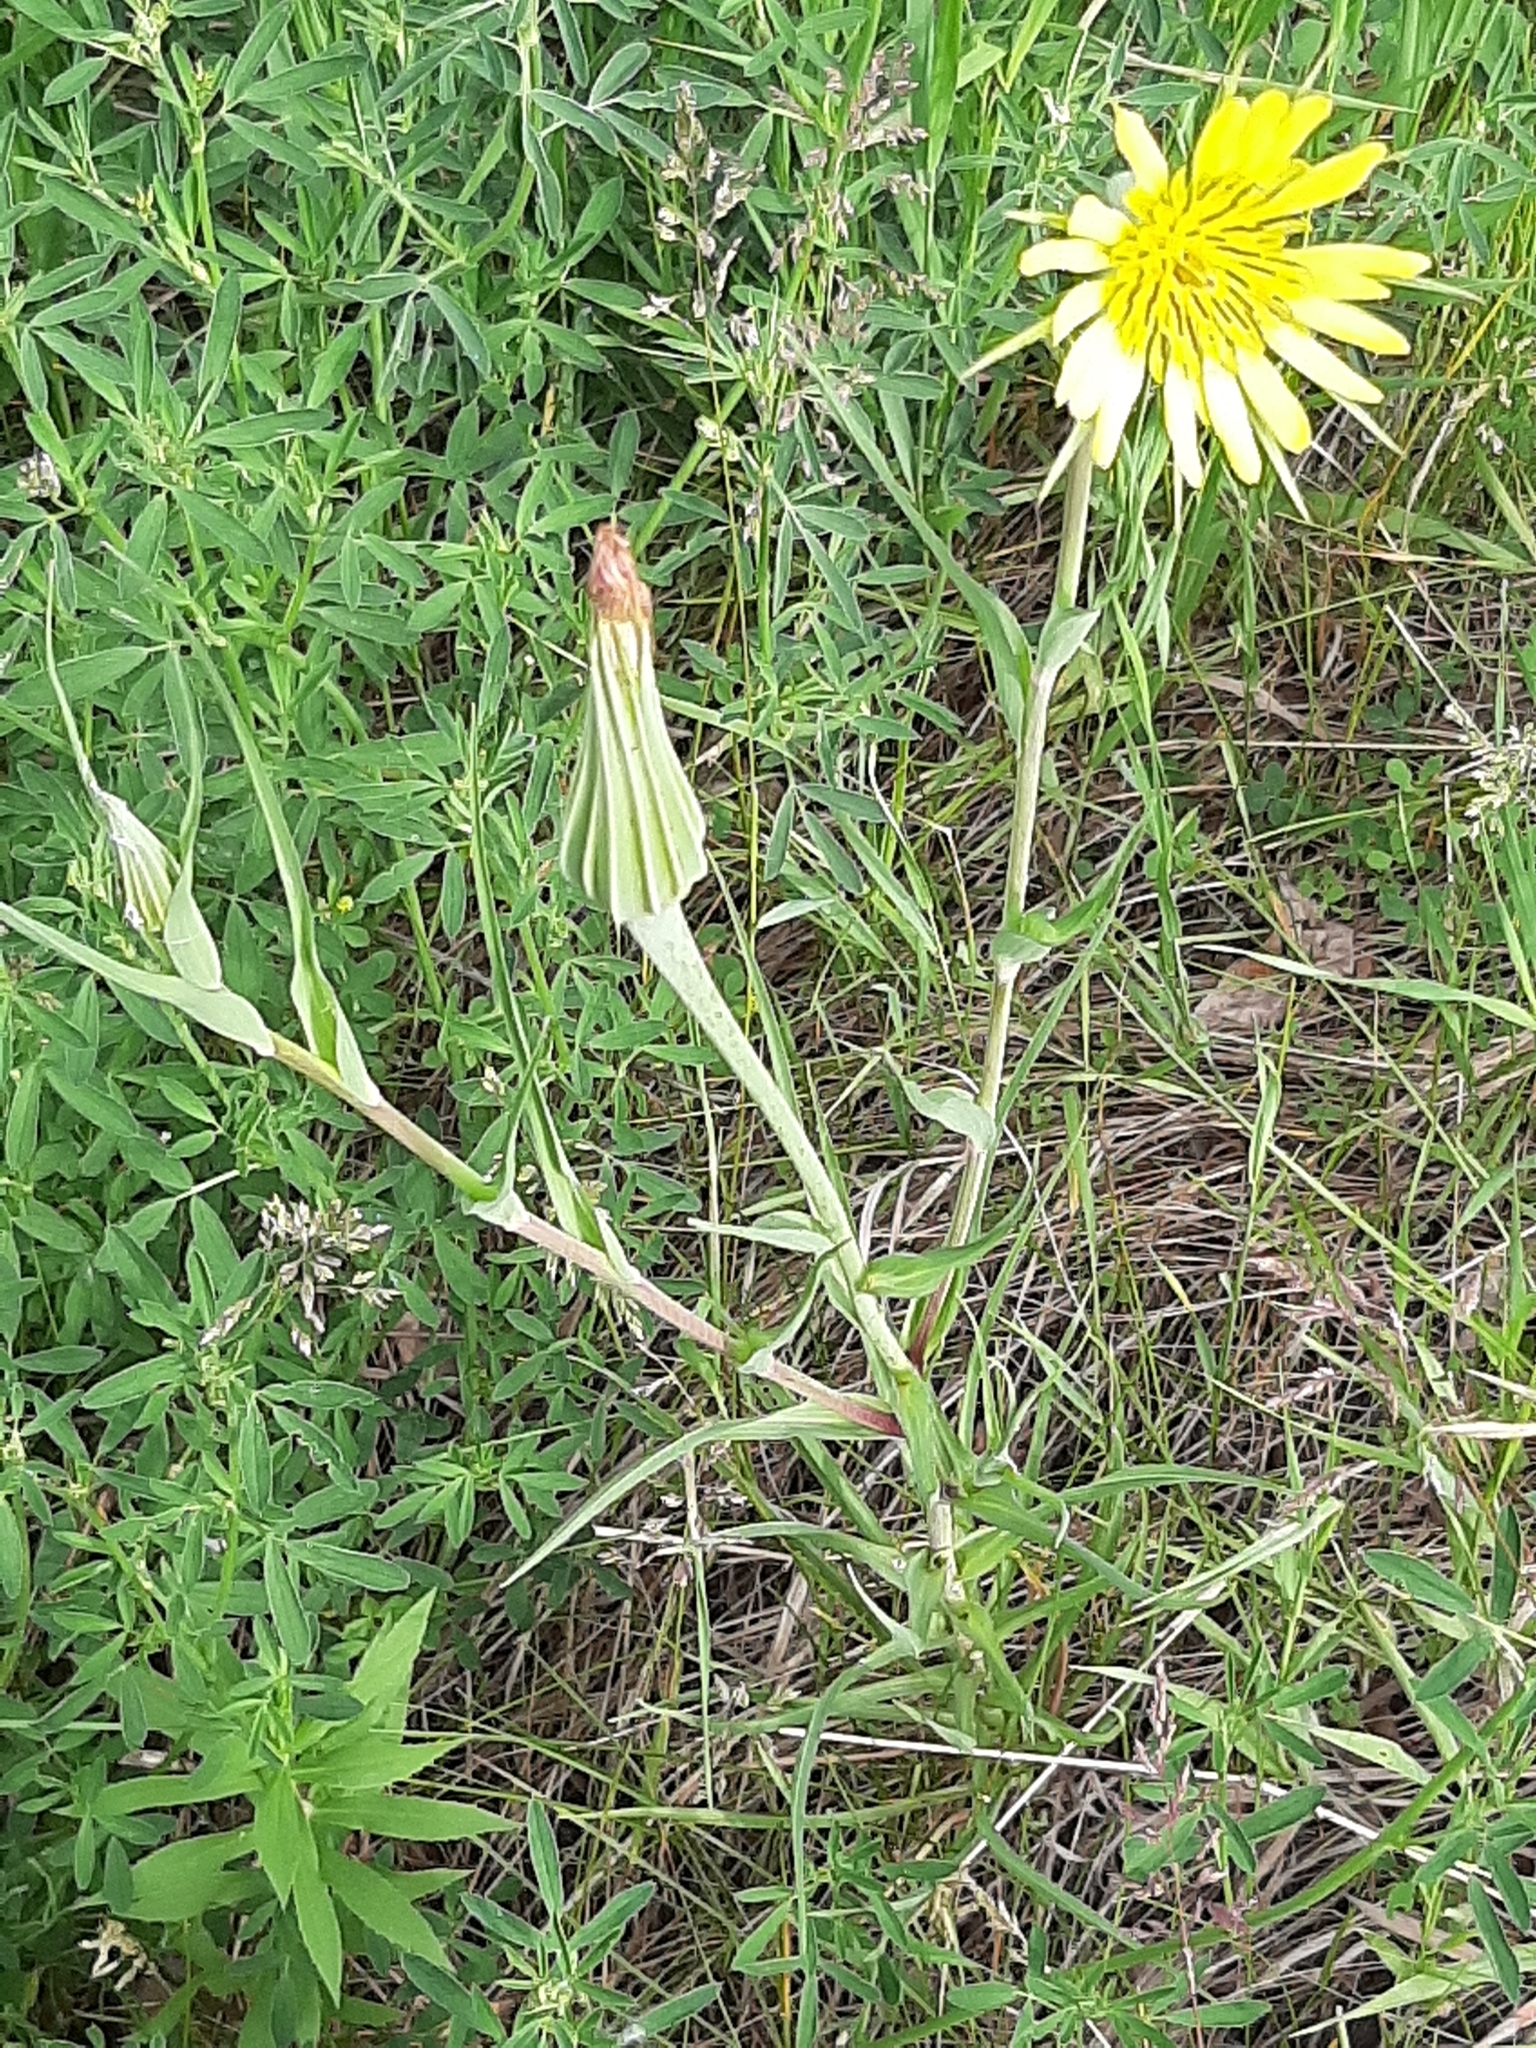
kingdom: Plantae
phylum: Tracheophyta
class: Magnoliopsida
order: Asterales
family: Asteraceae
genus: Tragopogon
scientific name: Tragopogon dubius
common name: Yellow salsify
